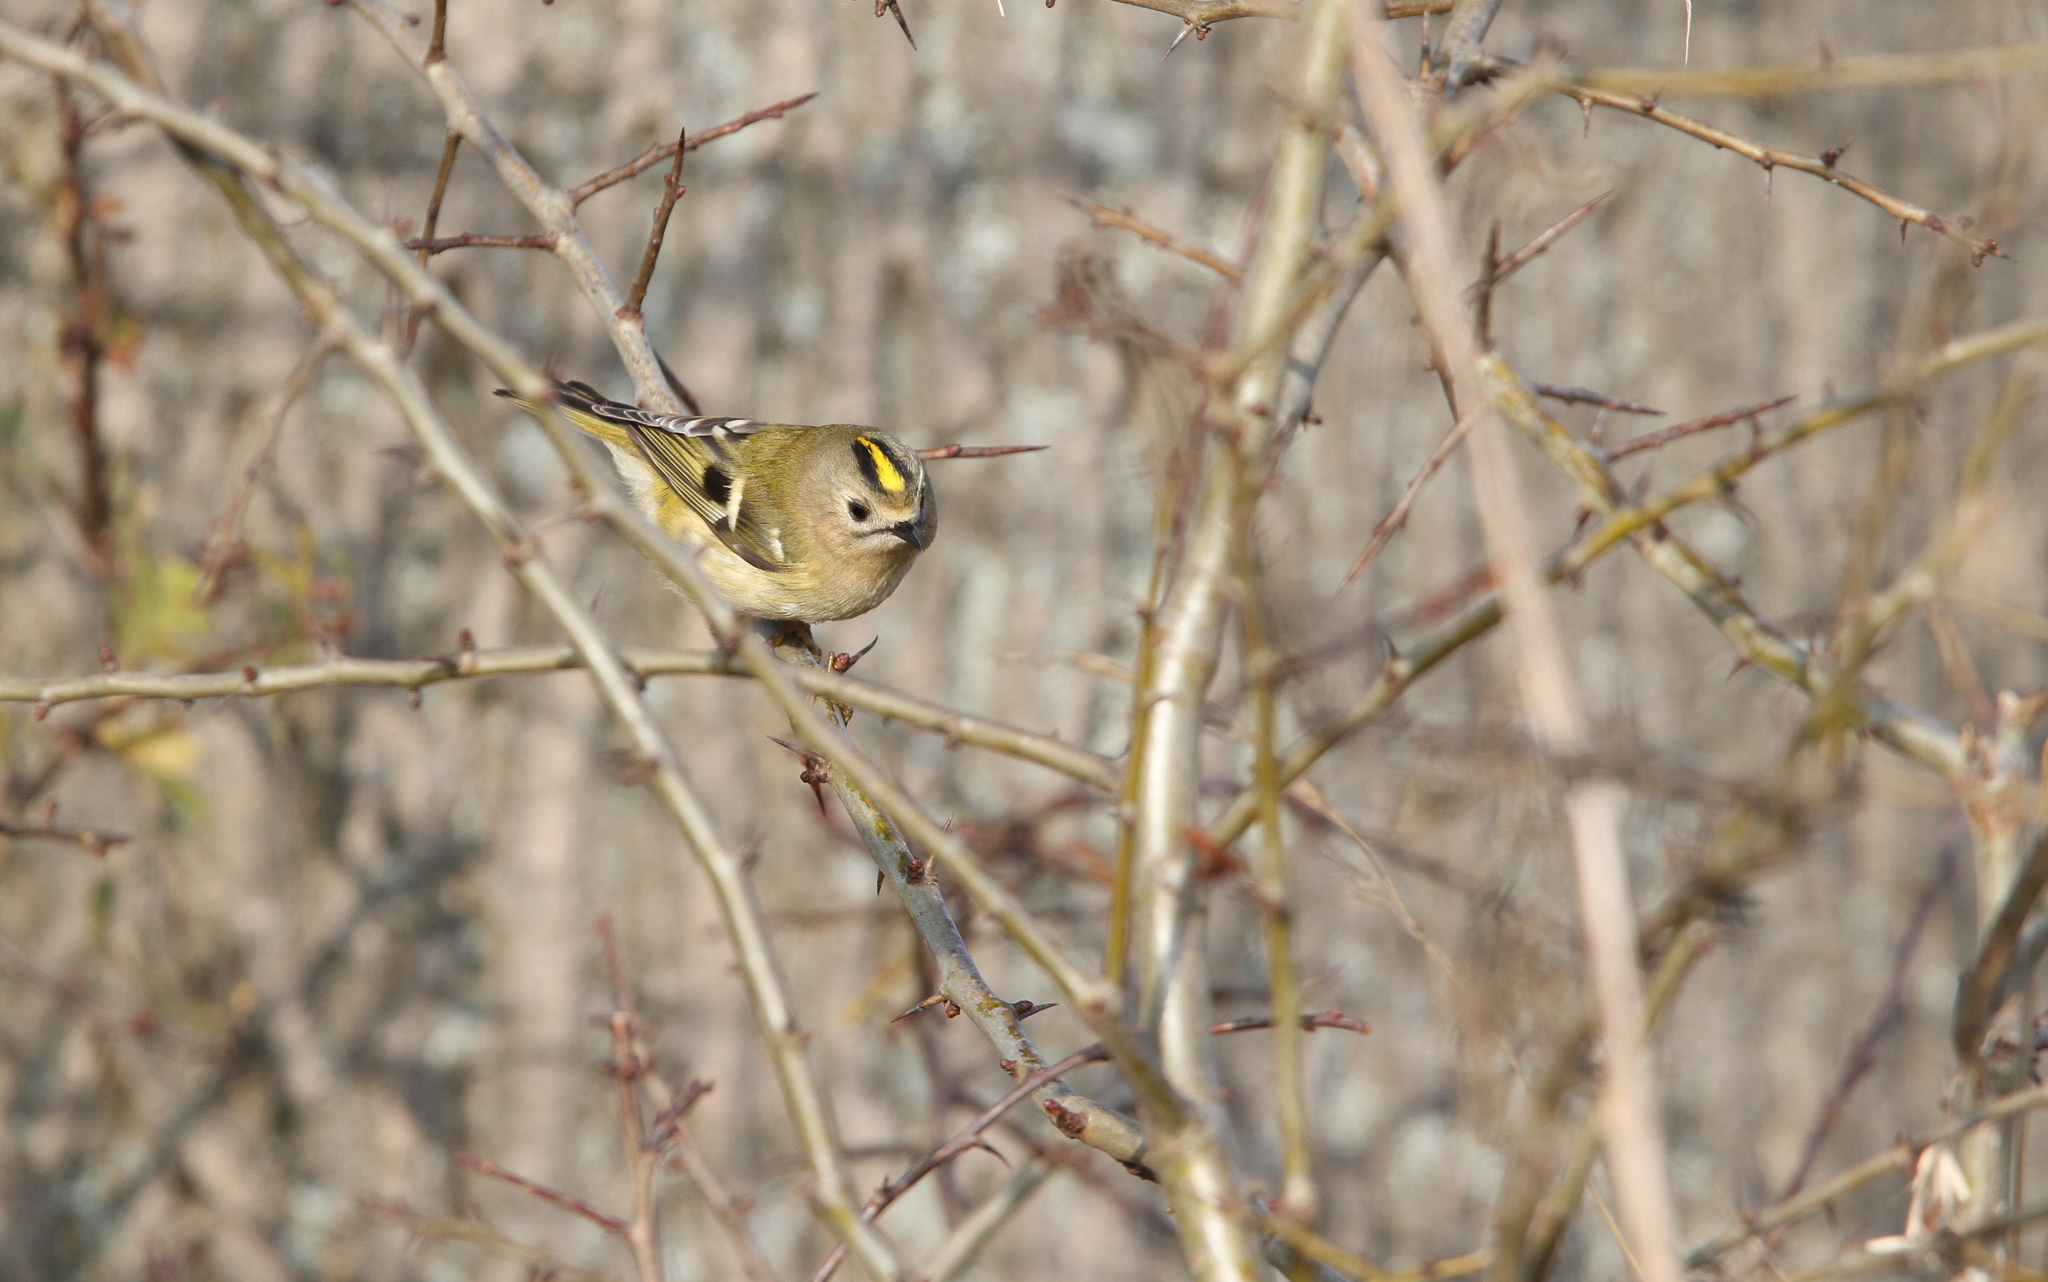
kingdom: Animalia
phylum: Chordata
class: Aves
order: Passeriformes
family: Regulidae
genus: Regulus
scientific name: Regulus regulus
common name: Goldcrest
